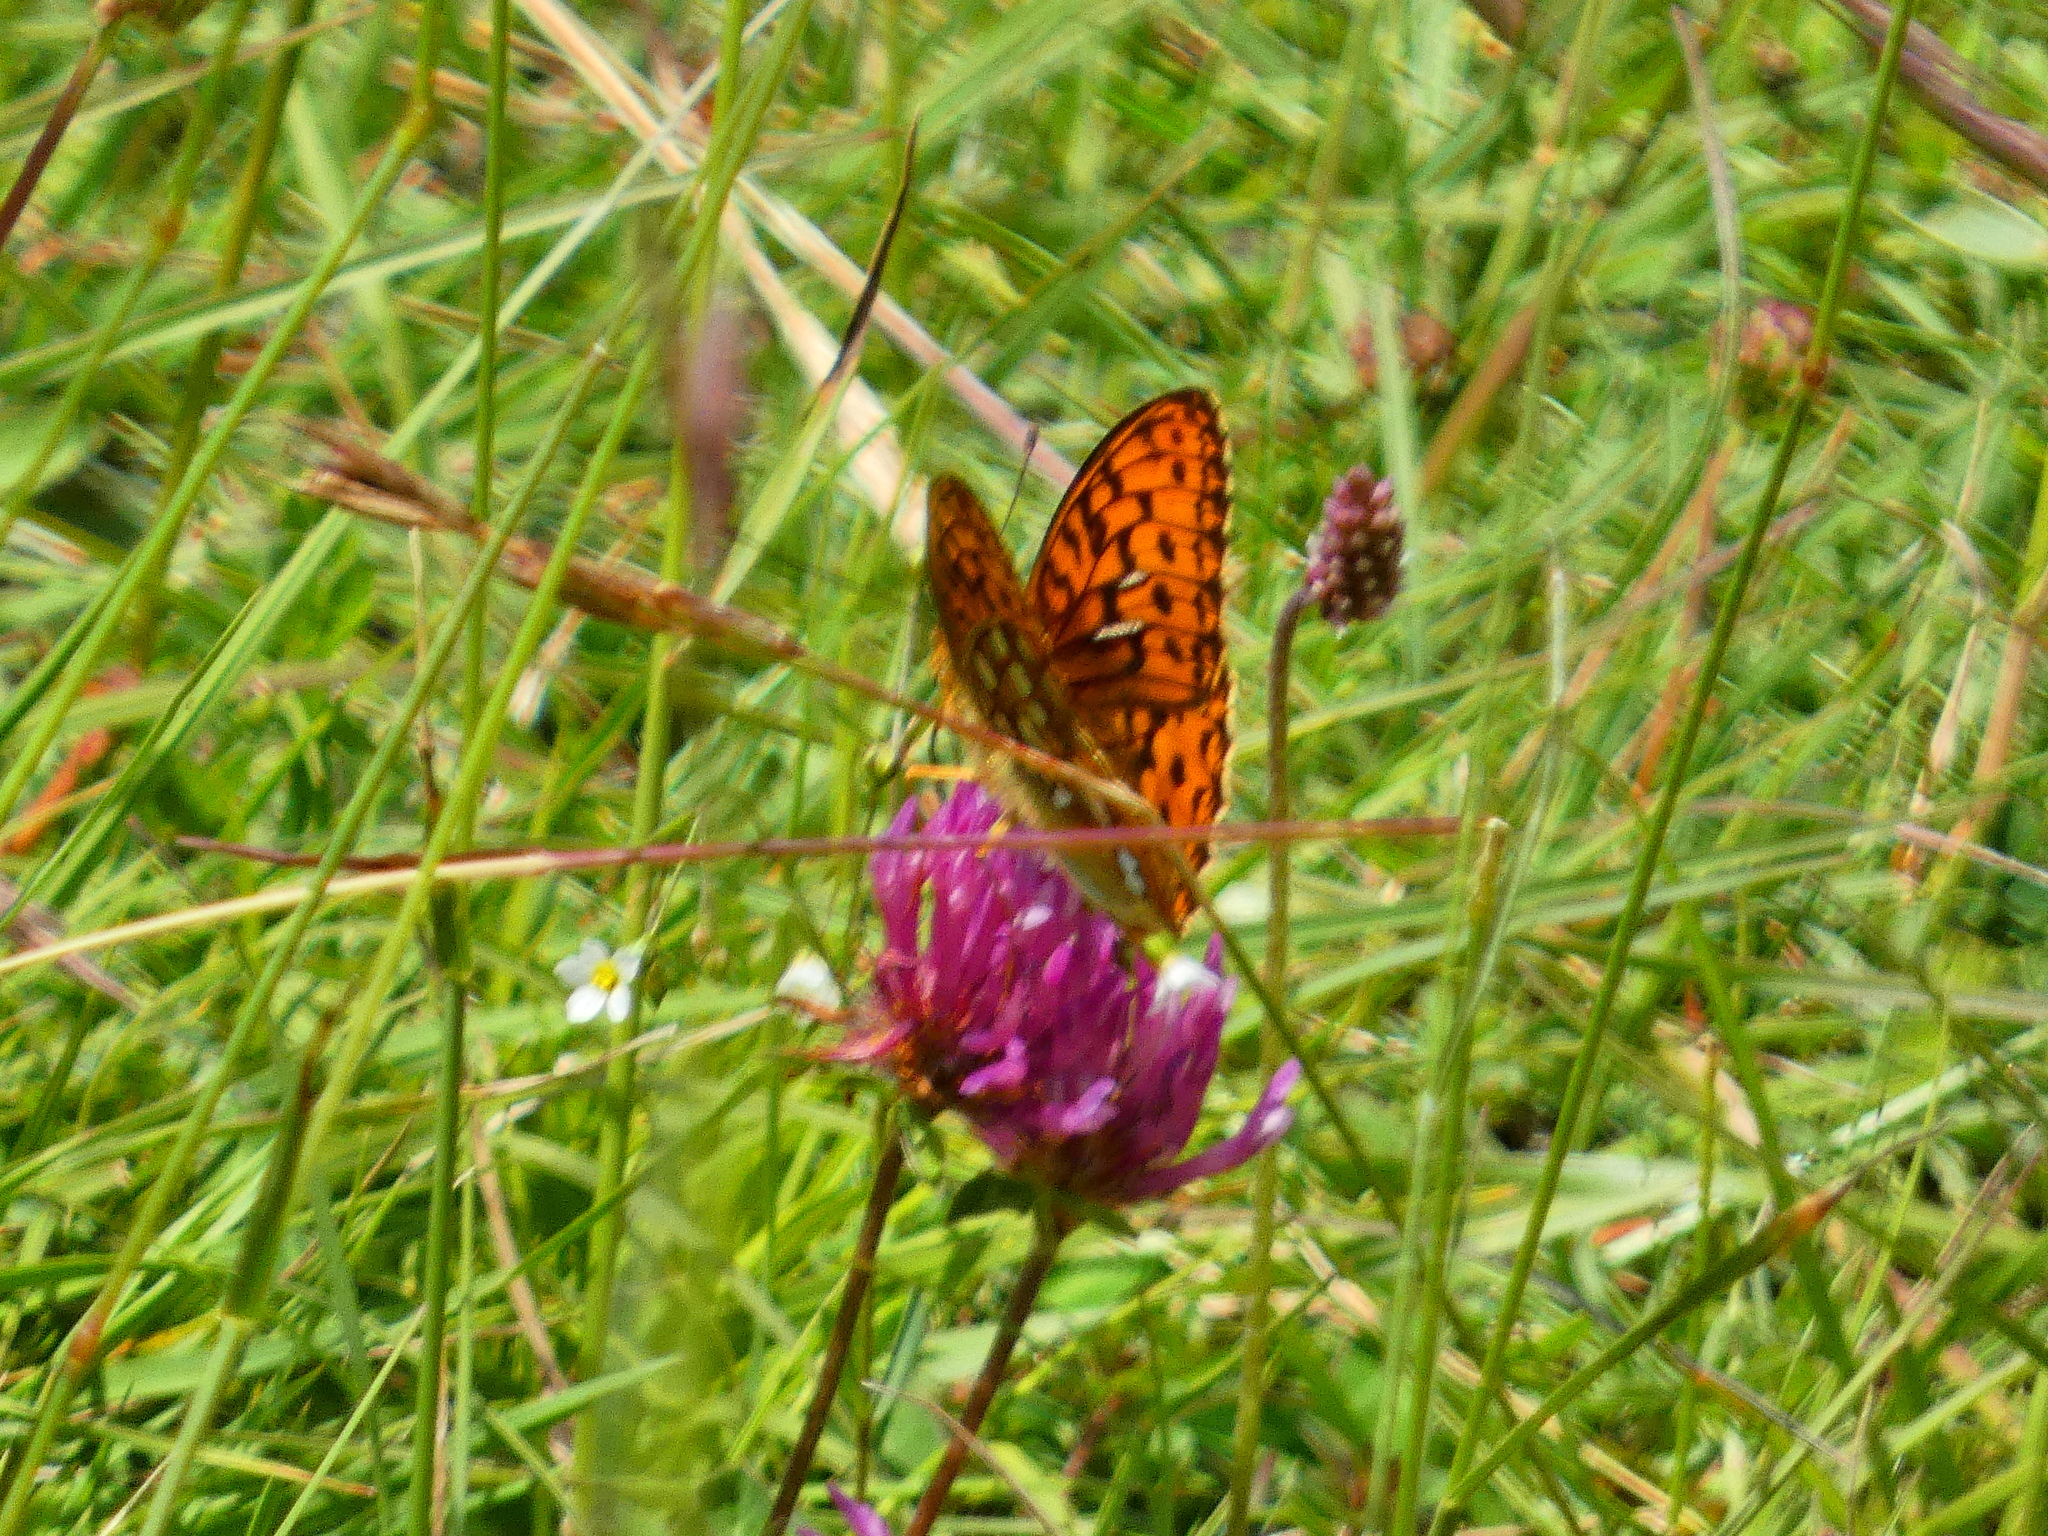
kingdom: Animalia
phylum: Arthropoda
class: Insecta
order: Lepidoptera
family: Nymphalidae
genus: Fabriciana
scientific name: Fabriciana adippe
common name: High brown fritillary
